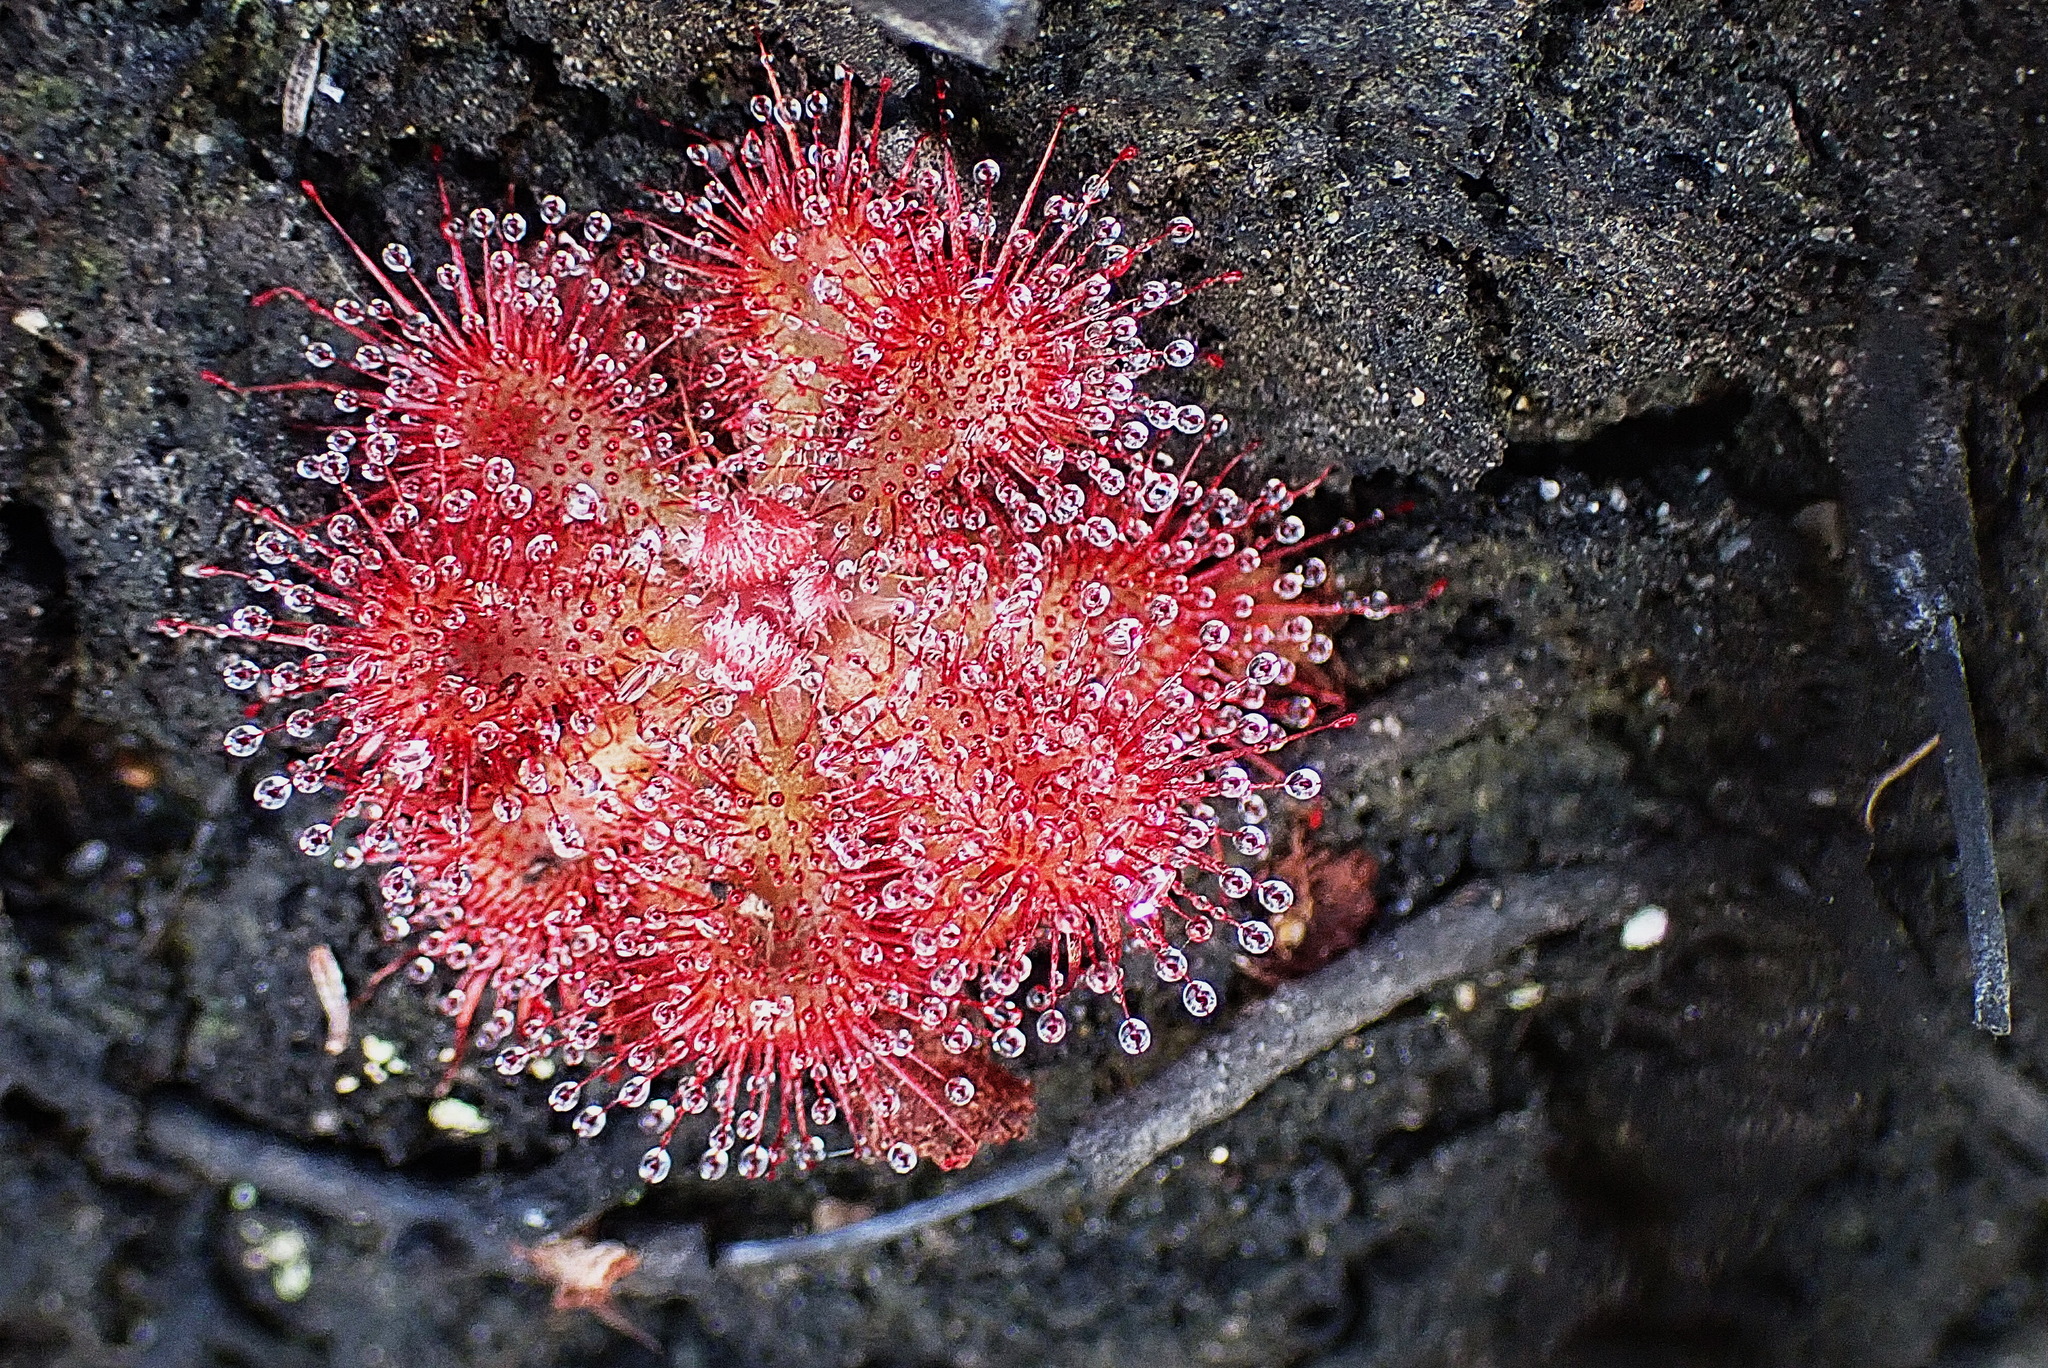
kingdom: Plantae
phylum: Tracheophyta
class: Magnoliopsida
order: Caryophyllales
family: Droseraceae
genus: Drosera
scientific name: Drosera aliciae
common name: Alice sundew
